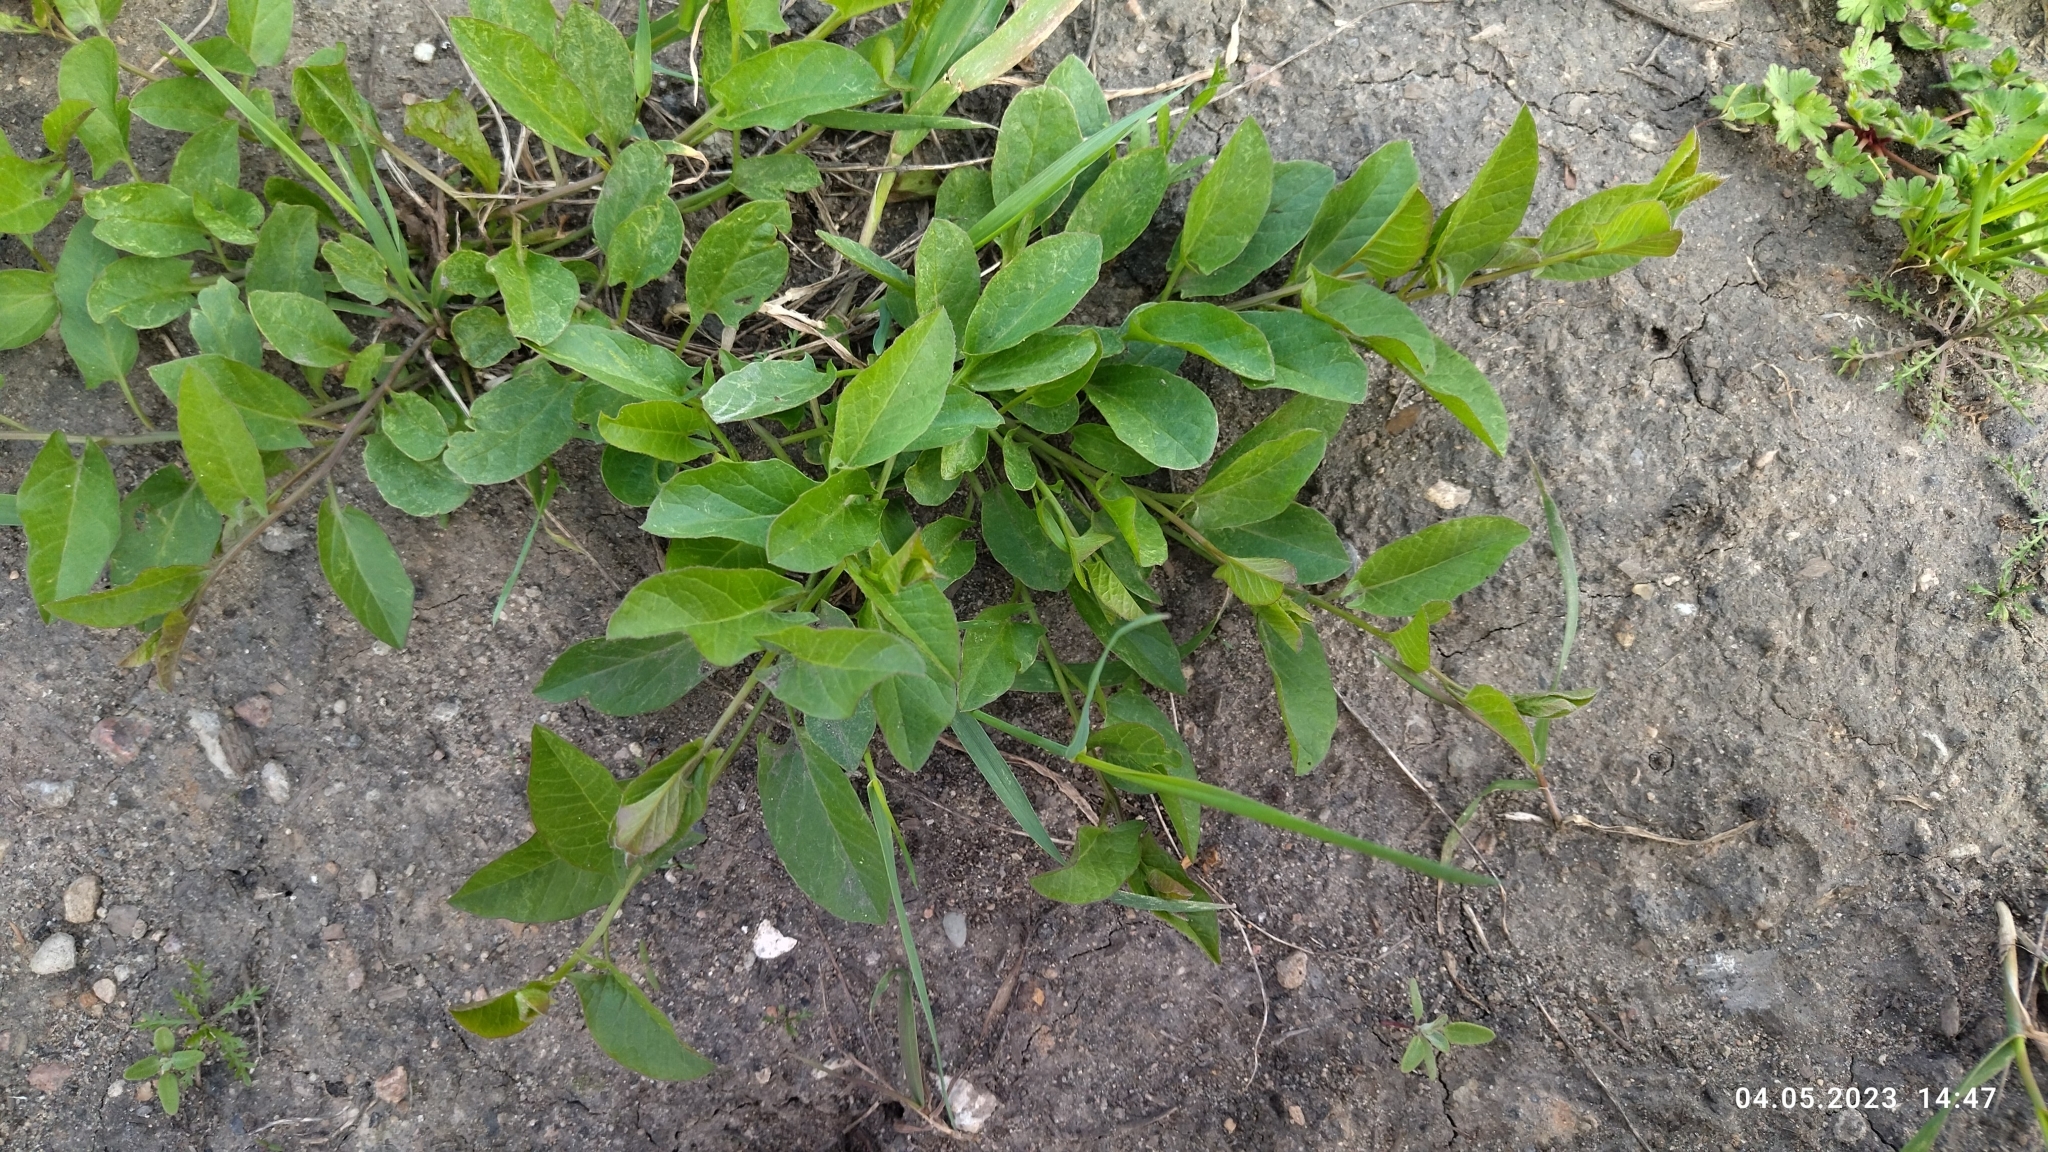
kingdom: Plantae
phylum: Tracheophyta
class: Magnoliopsida
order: Solanales
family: Convolvulaceae
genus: Convolvulus
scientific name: Convolvulus arvensis
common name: Field bindweed
